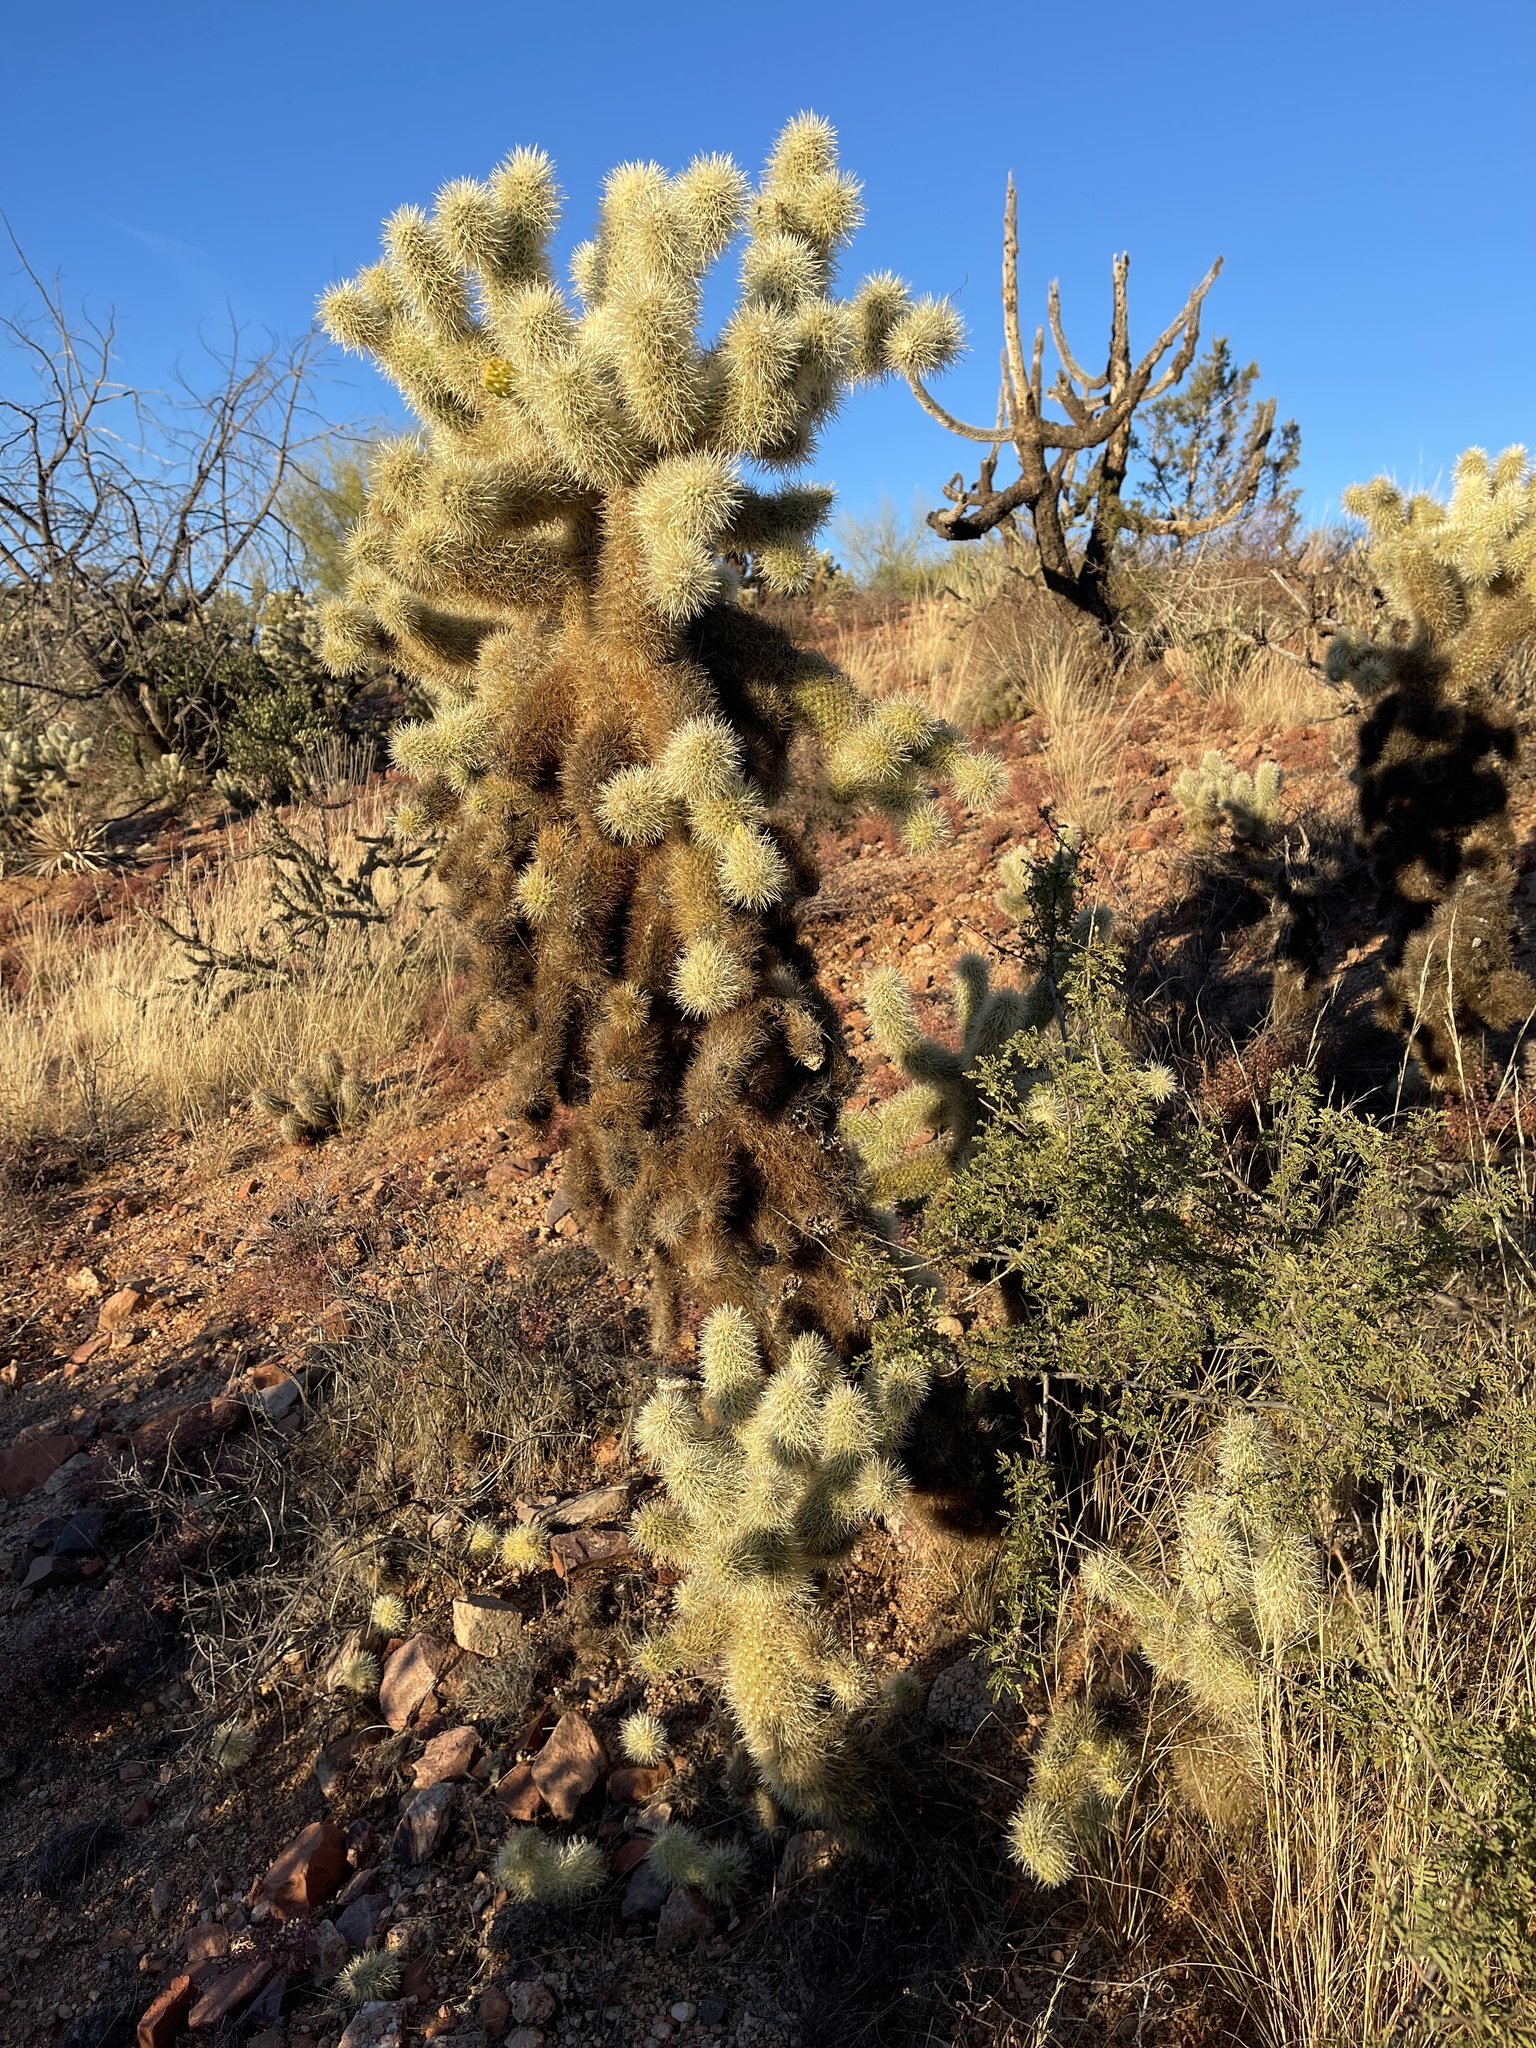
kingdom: Plantae
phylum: Tracheophyta
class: Magnoliopsida
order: Caryophyllales
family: Cactaceae
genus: Cylindropuntia
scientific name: Cylindropuntia fosbergii
